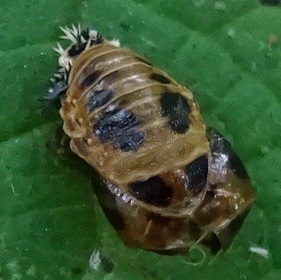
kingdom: Animalia
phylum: Arthropoda
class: Insecta
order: Coleoptera
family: Coccinellidae
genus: Harmonia
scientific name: Harmonia axyridis
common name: Harlequin ladybird
